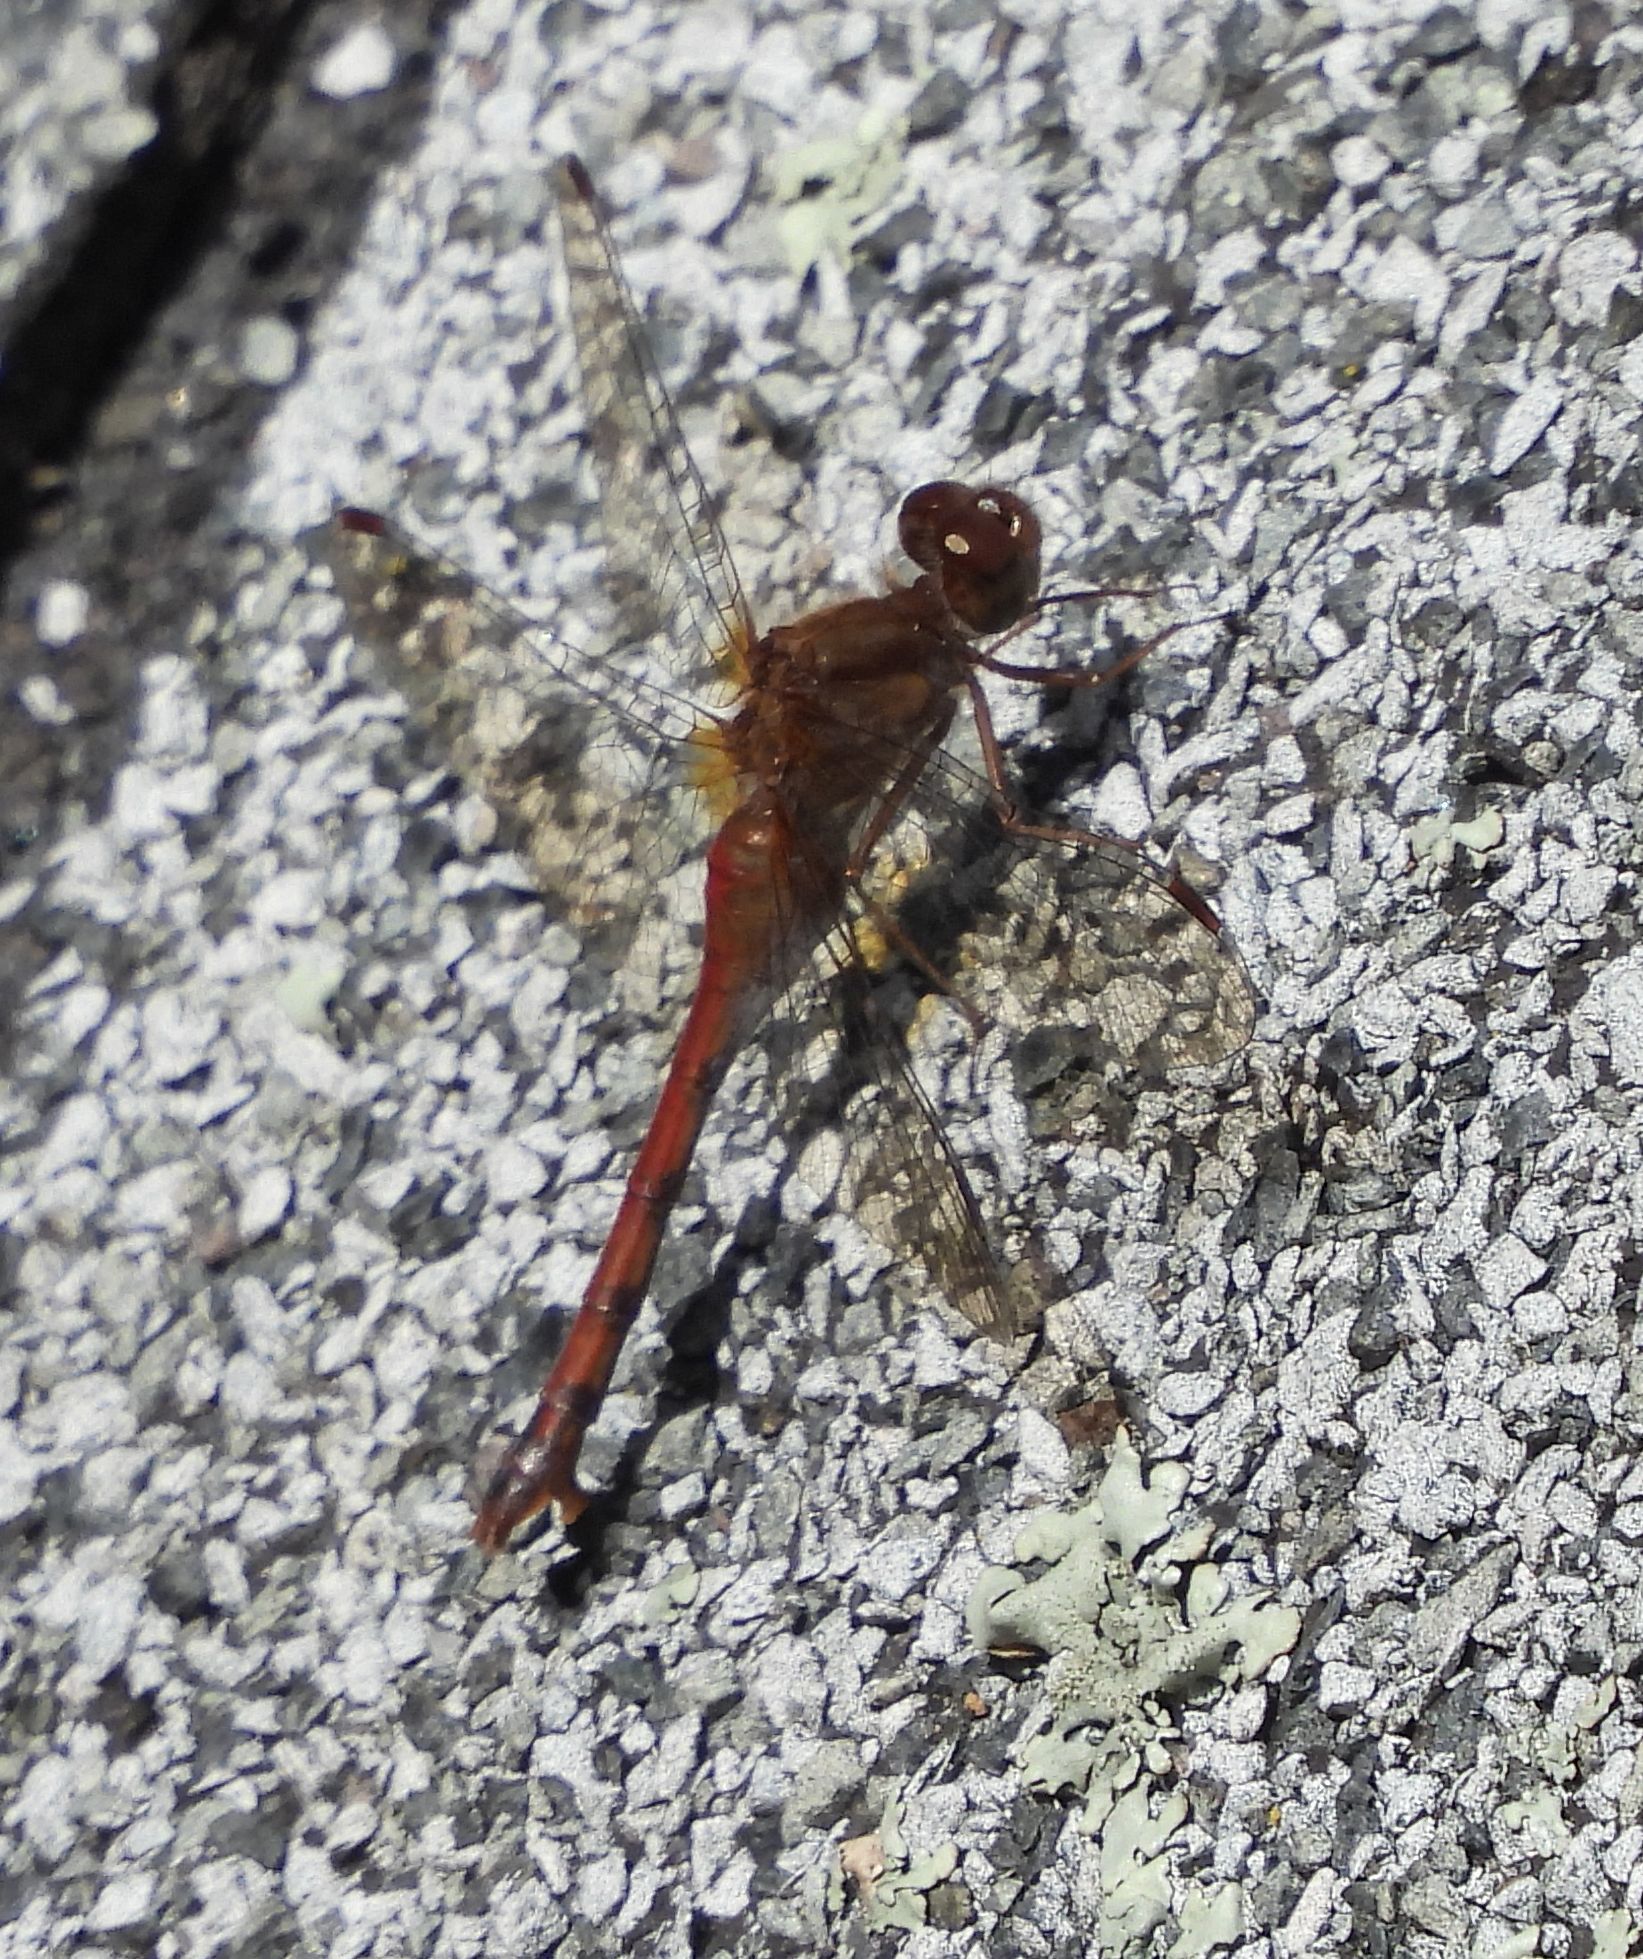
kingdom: Animalia
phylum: Arthropoda
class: Insecta
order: Odonata
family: Libellulidae
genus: Sympetrum
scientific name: Sympetrum vicinum
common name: Autumn meadowhawk
